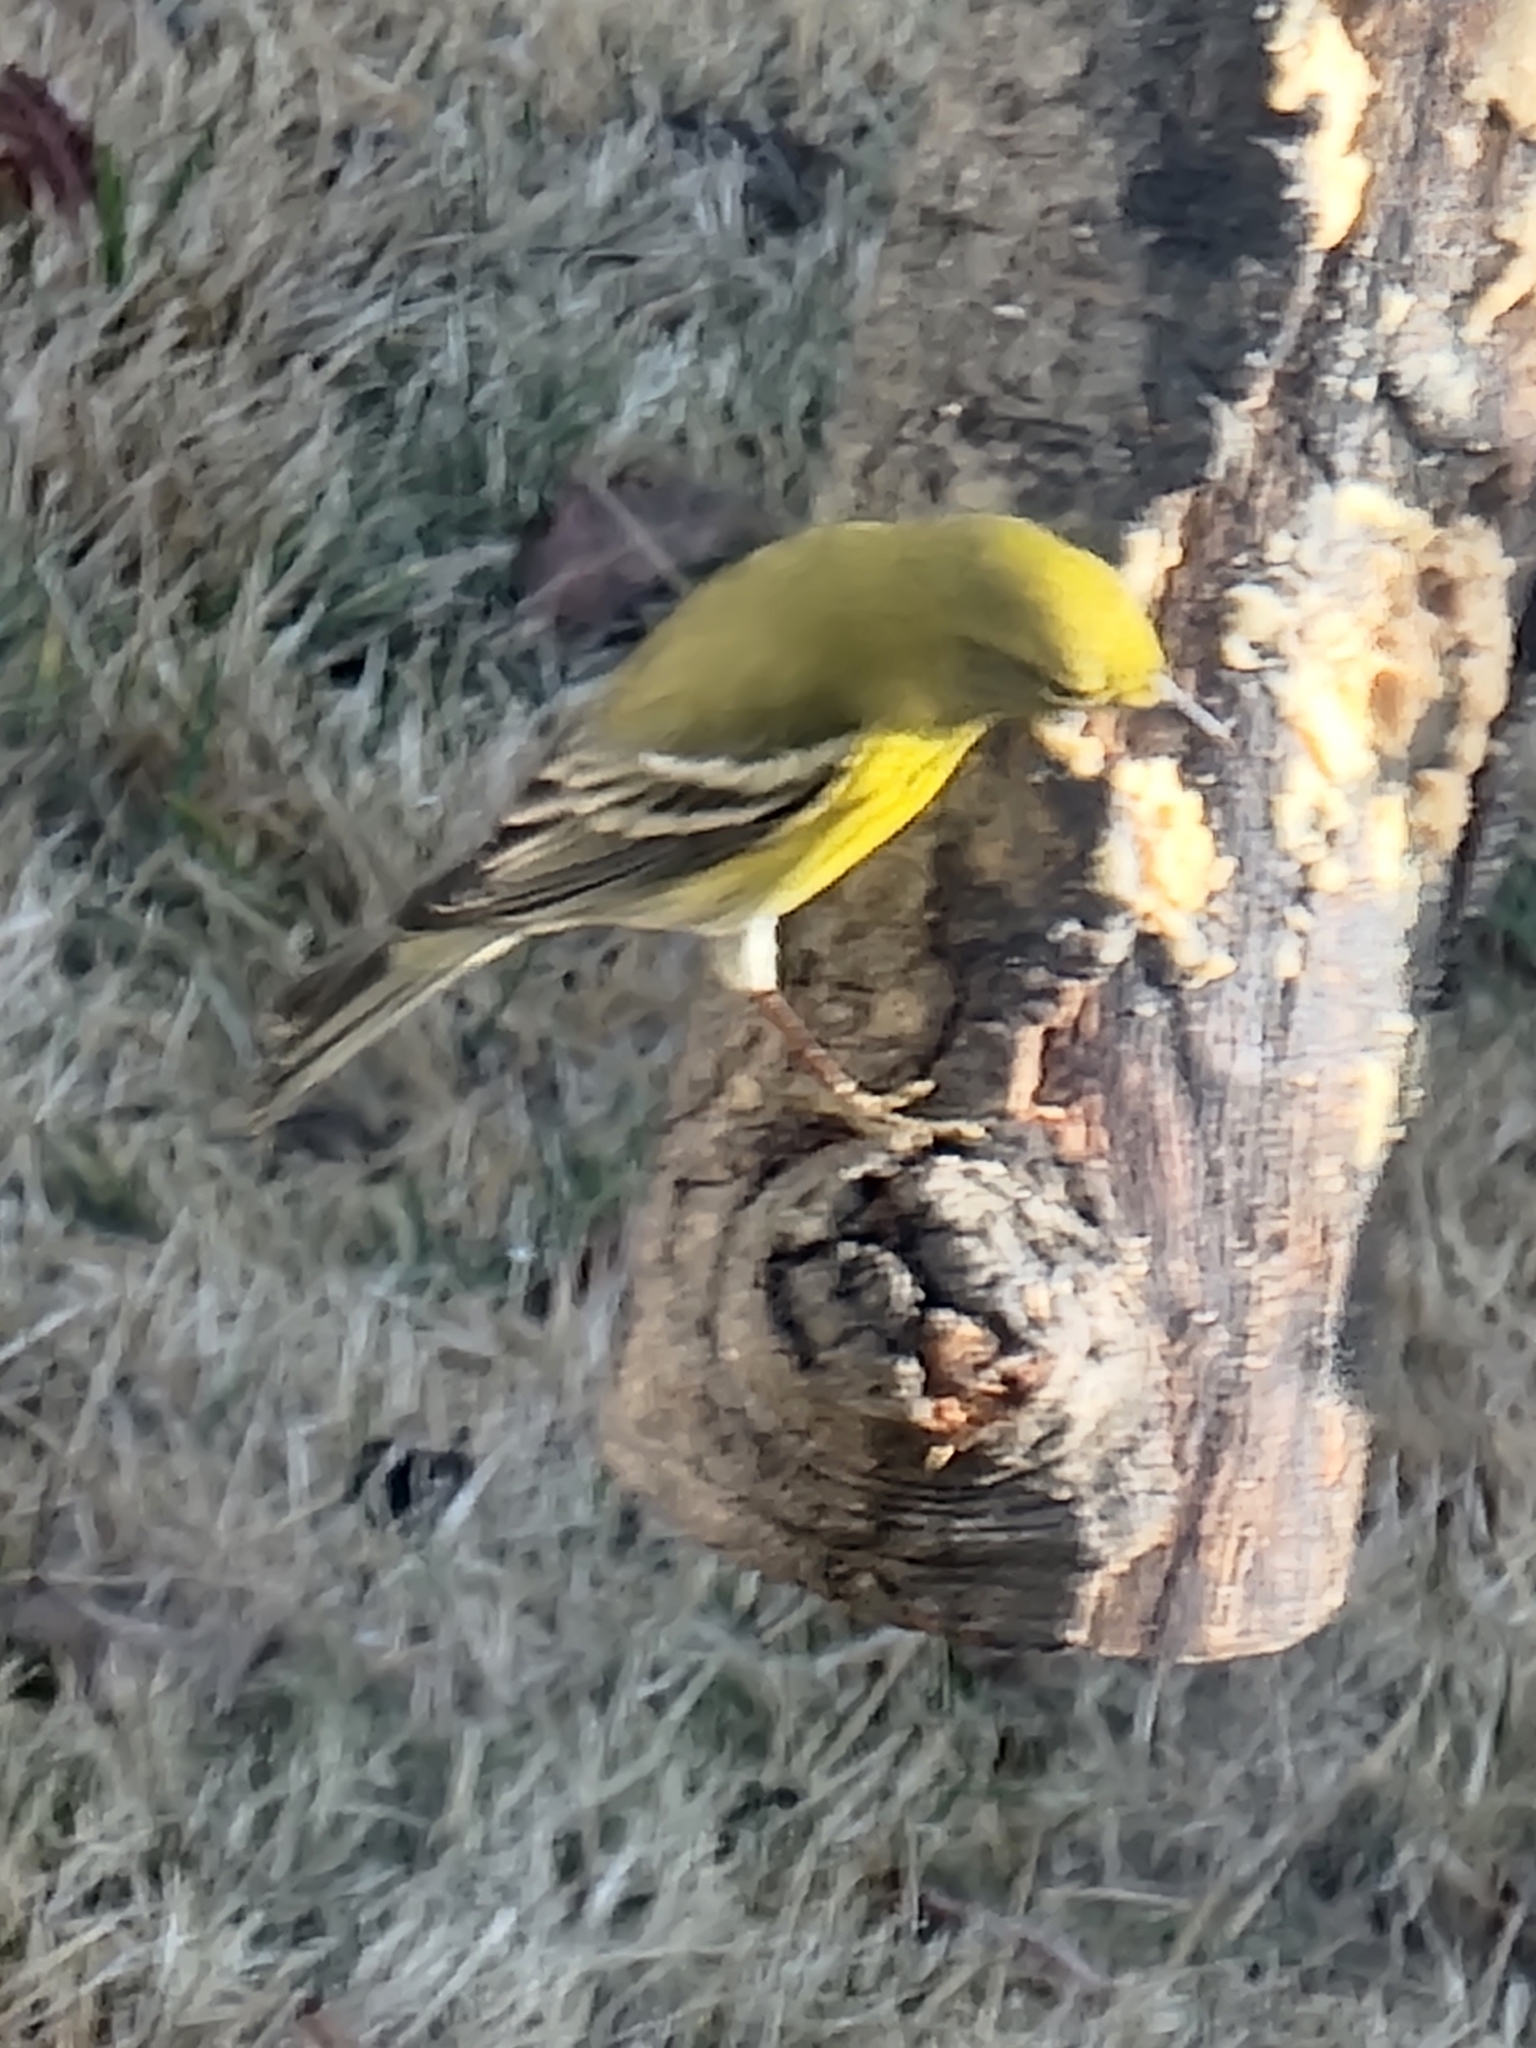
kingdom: Animalia
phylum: Chordata
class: Aves
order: Passeriformes
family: Parulidae
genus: Setophaga
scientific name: Setophaga pinus
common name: Pine warbler
